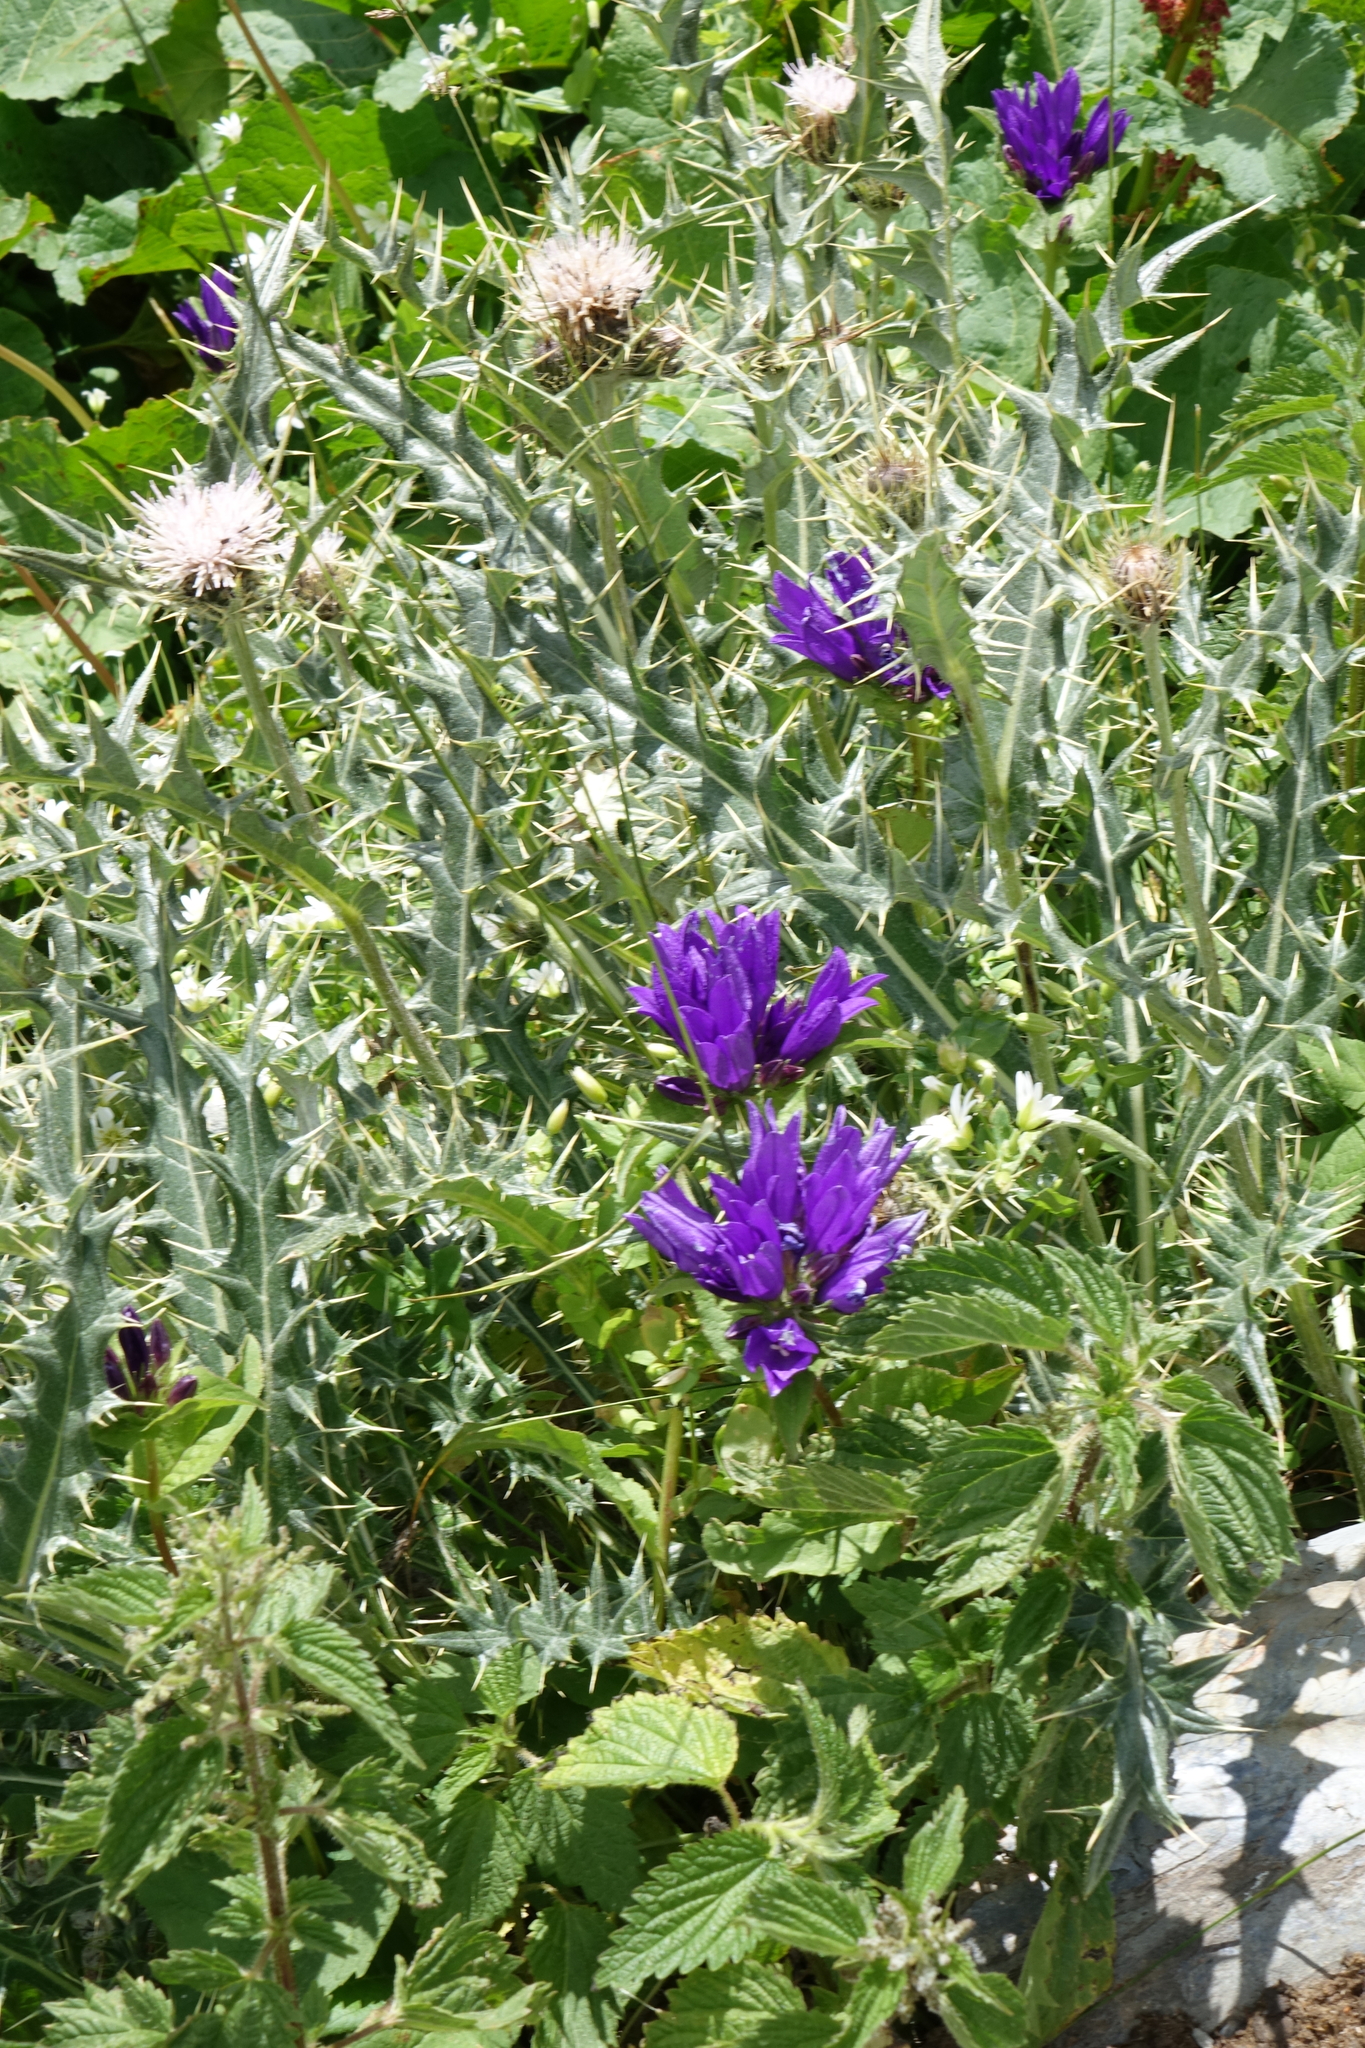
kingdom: Plantae
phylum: Tracheophyta
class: Magnoliopsida
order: Asterales
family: Campanulaceae
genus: Campanula
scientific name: Campanula glomerata
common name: Clustered bellflower
